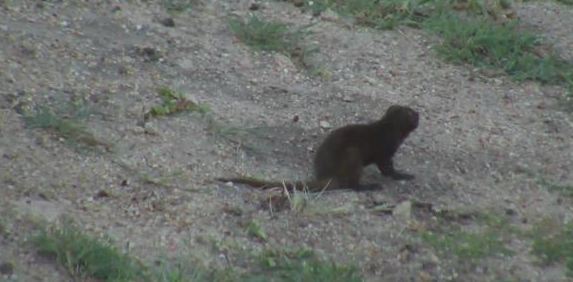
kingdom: Animalia
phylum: Chordata
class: Mammalia
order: Carnivora
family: Herpestidae
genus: Helogale
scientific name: Helogale parvula
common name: Common dwarf mongoose
